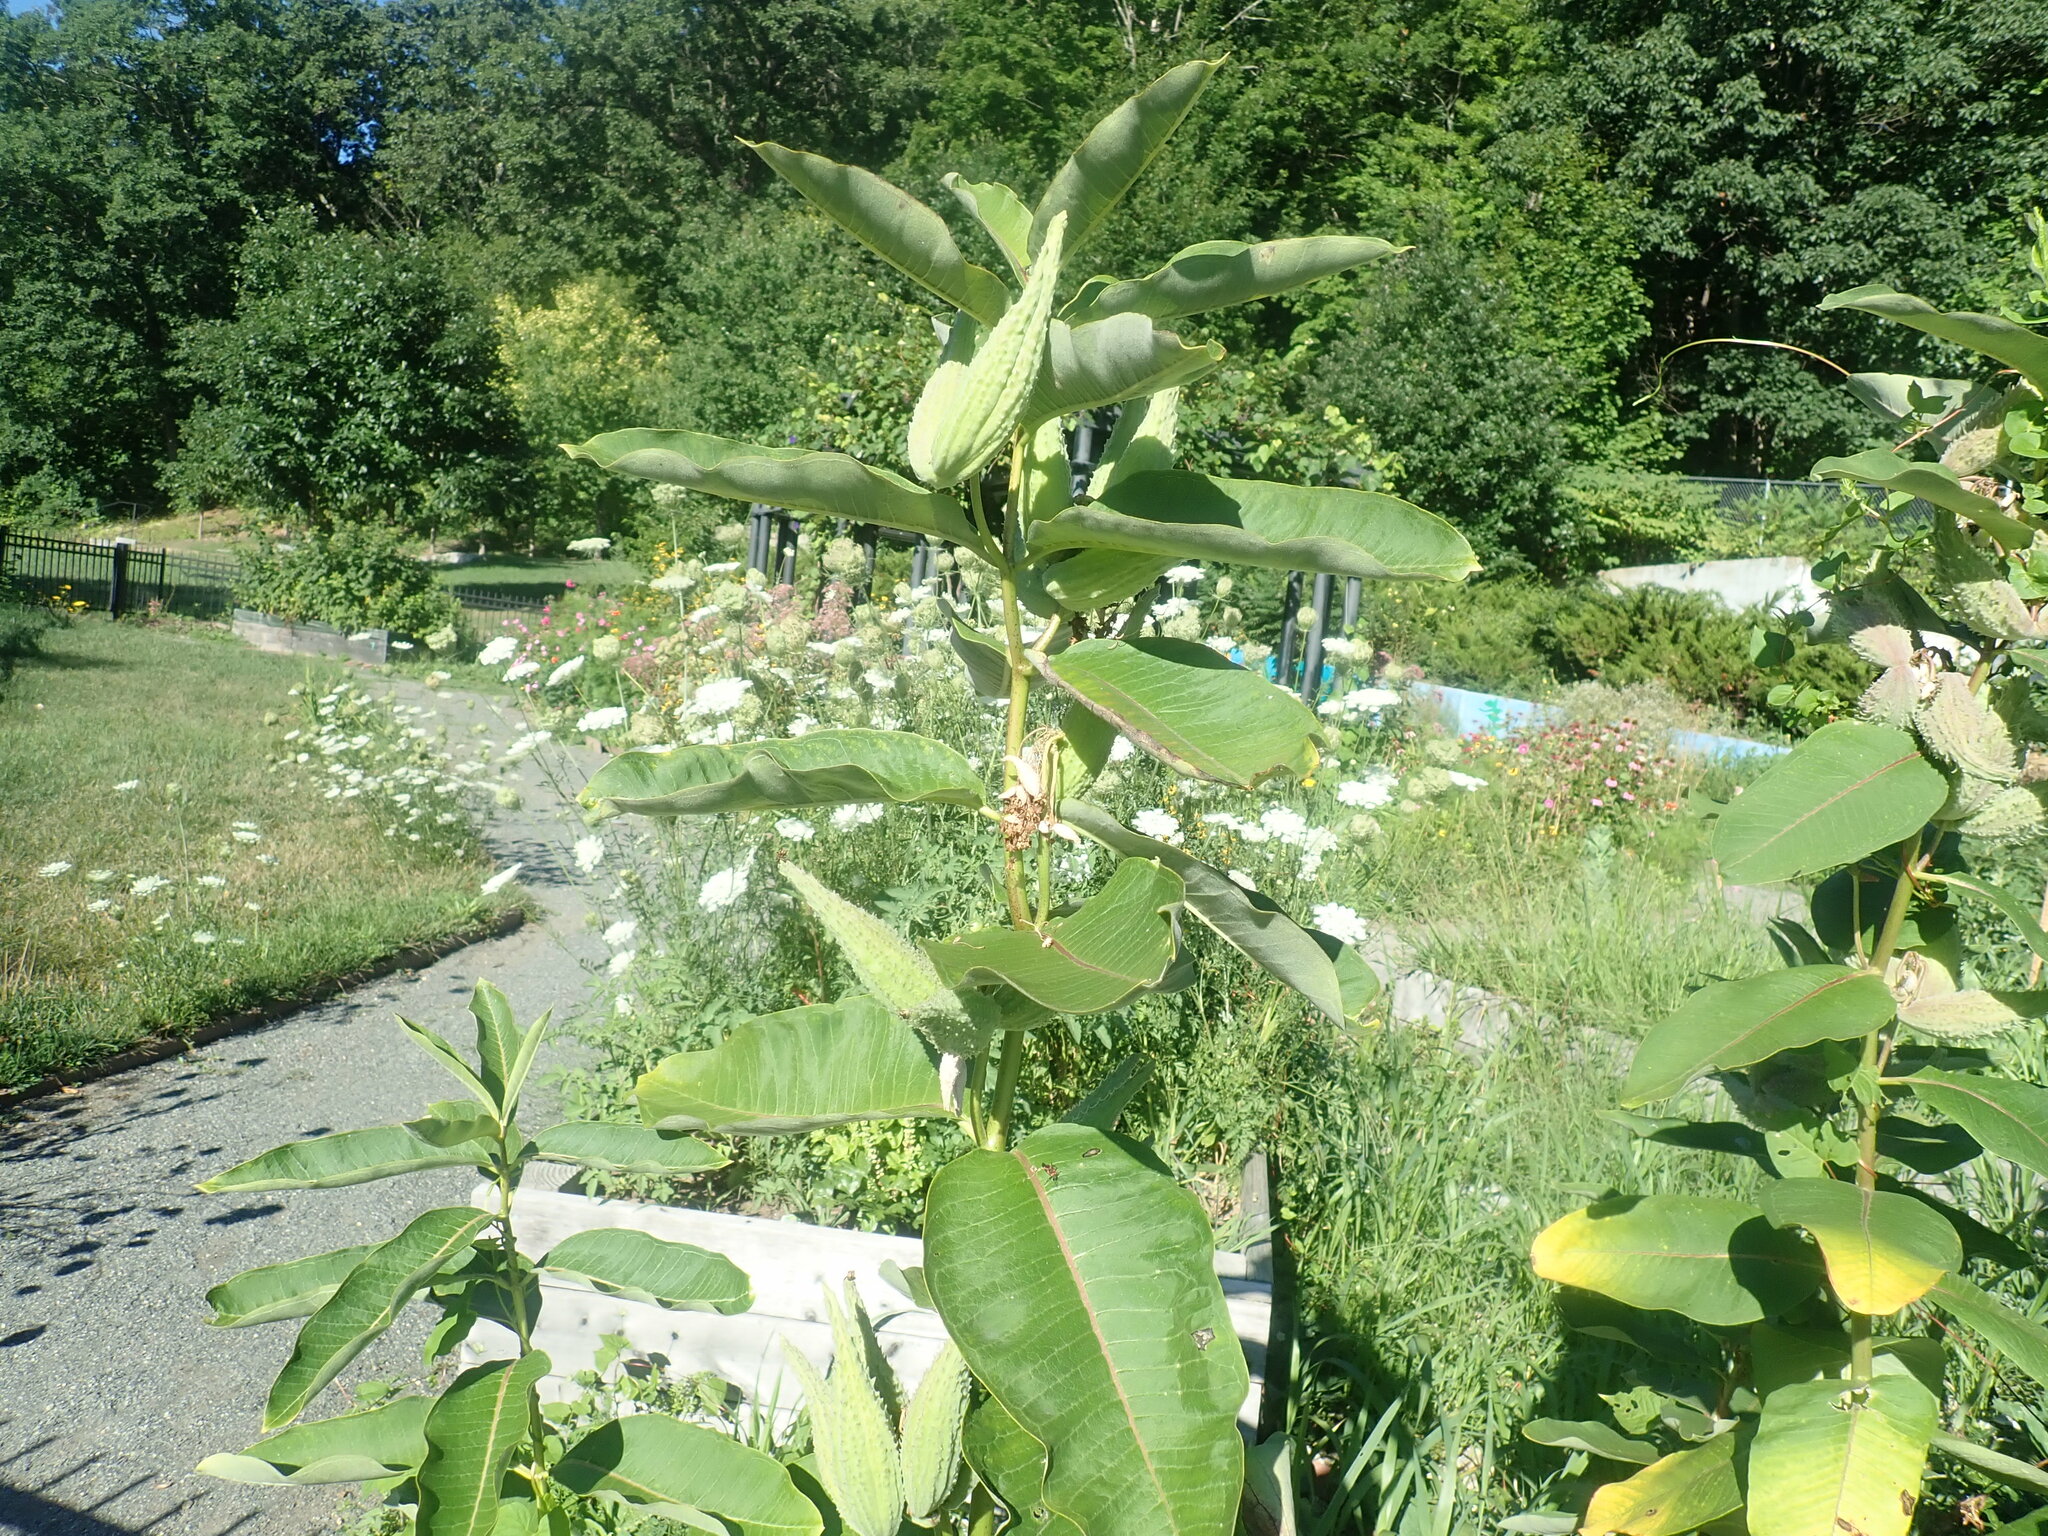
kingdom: Plantae
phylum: Tracheophyta
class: Magnoliopsida
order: Gentianales
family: Apocynaceae
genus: Asclepias
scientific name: Asclepias syriaca
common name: Common milkweed
